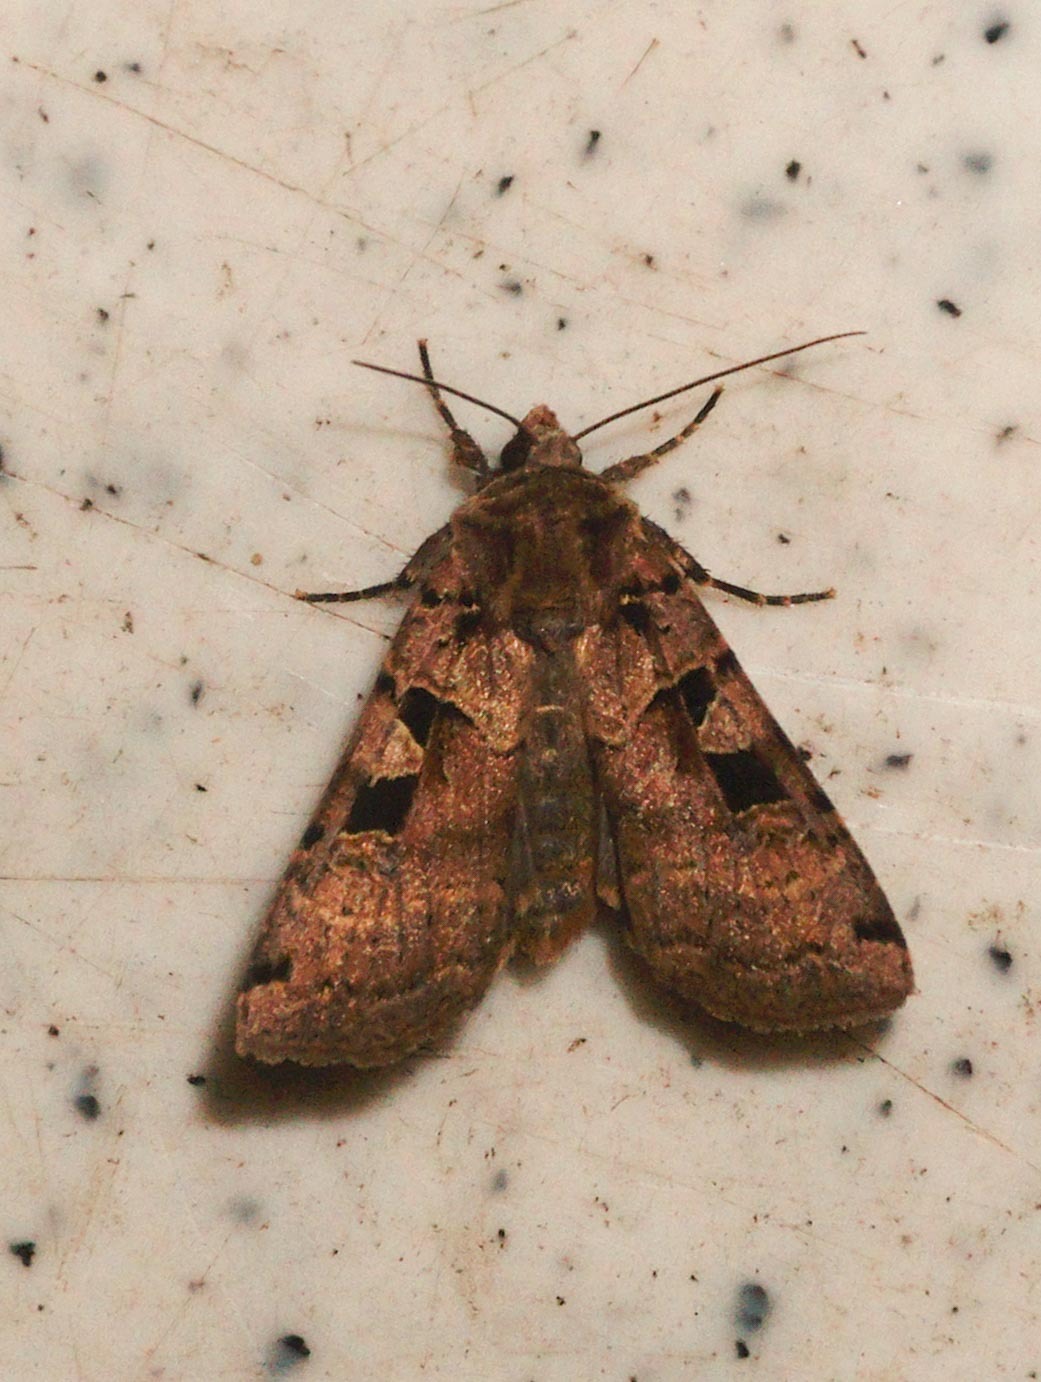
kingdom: Animalia
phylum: Arthropoda
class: Insecta
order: Lepidoptera
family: Noctuidae
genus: Xestia
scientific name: Xestia ditrapezium
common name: Triple-spotted clay
